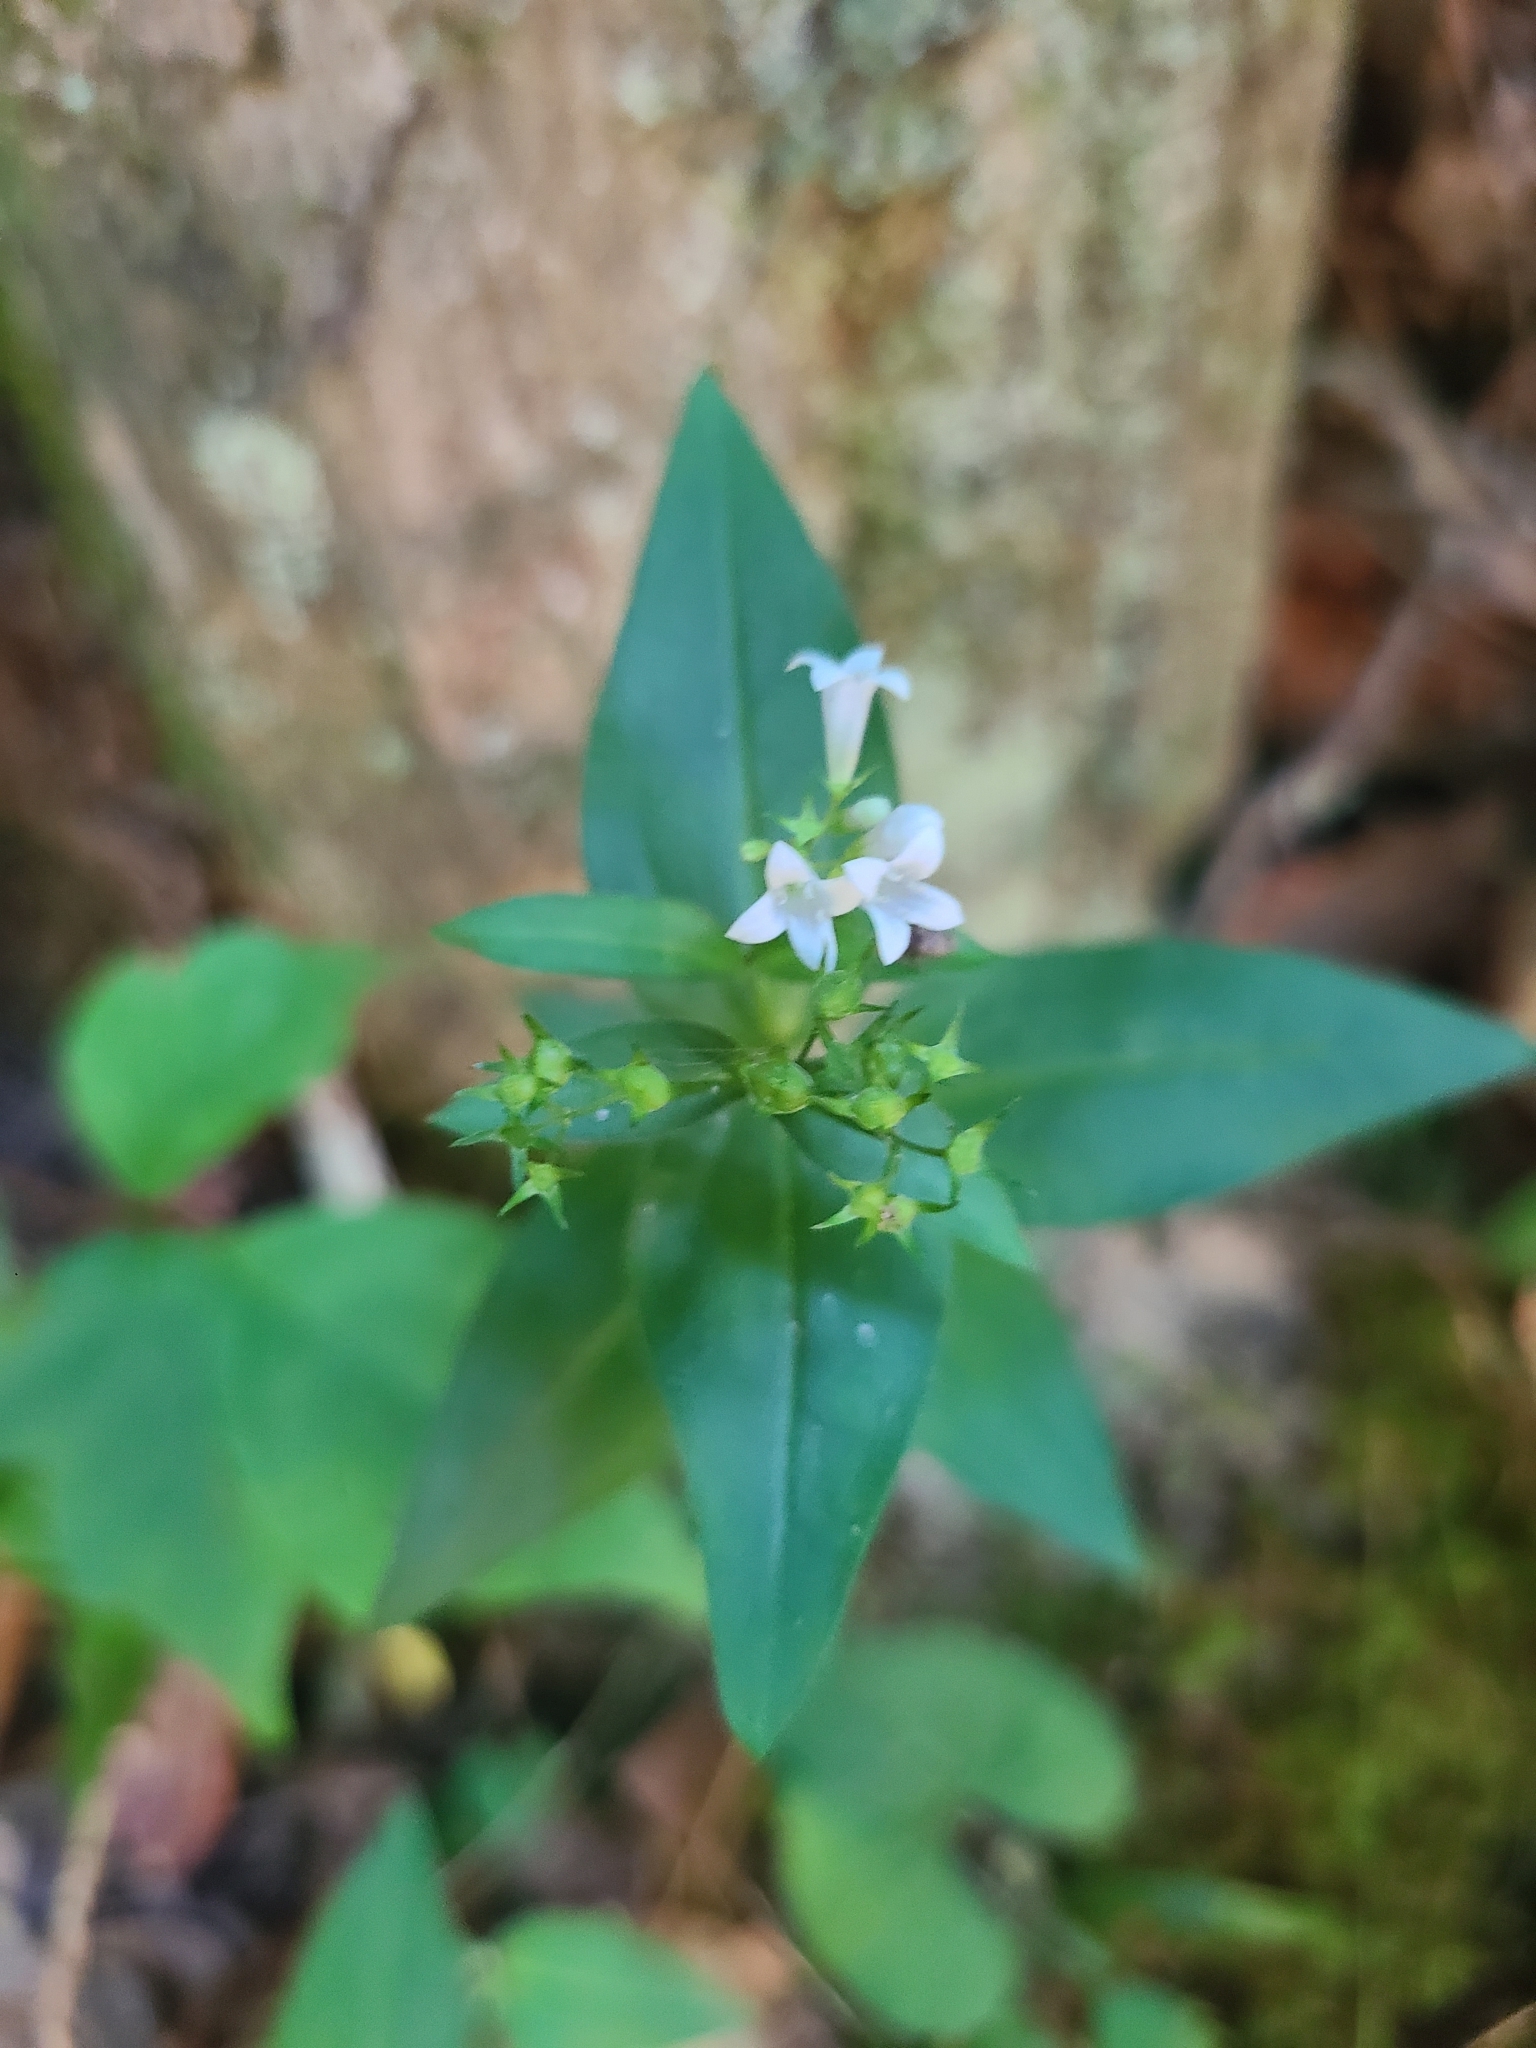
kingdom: Plantae
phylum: Tracheophyta
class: Magnoliopsida
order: Gentianales
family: Rubiaceae
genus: Houstonia
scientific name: Houstonia purpurea
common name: Summer bluet
